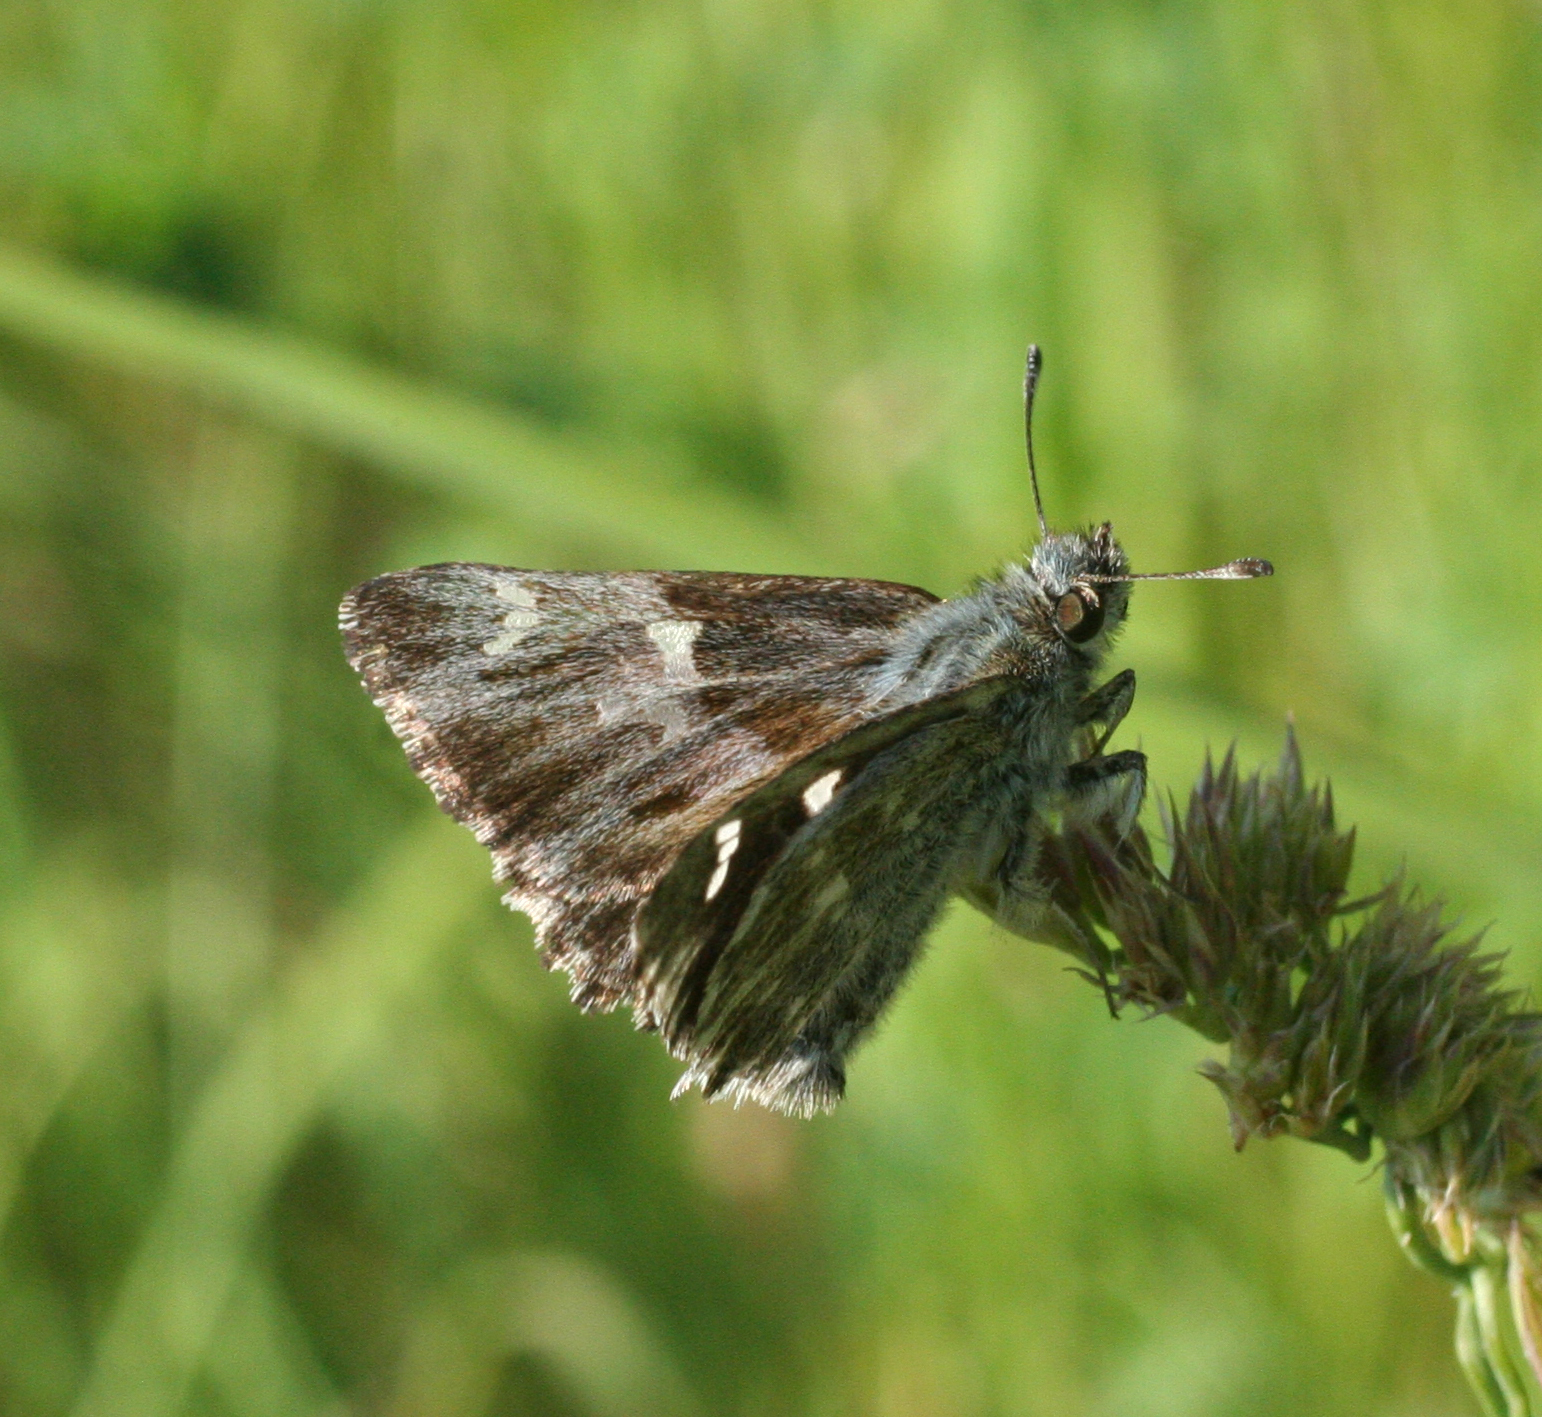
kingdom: Animalia
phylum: Arthropoda
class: Insecta
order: Lepidoptera
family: Hesperiidae
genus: Carcharodus
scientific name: Carcharodus floccifera
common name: Tufted marbled skipper
